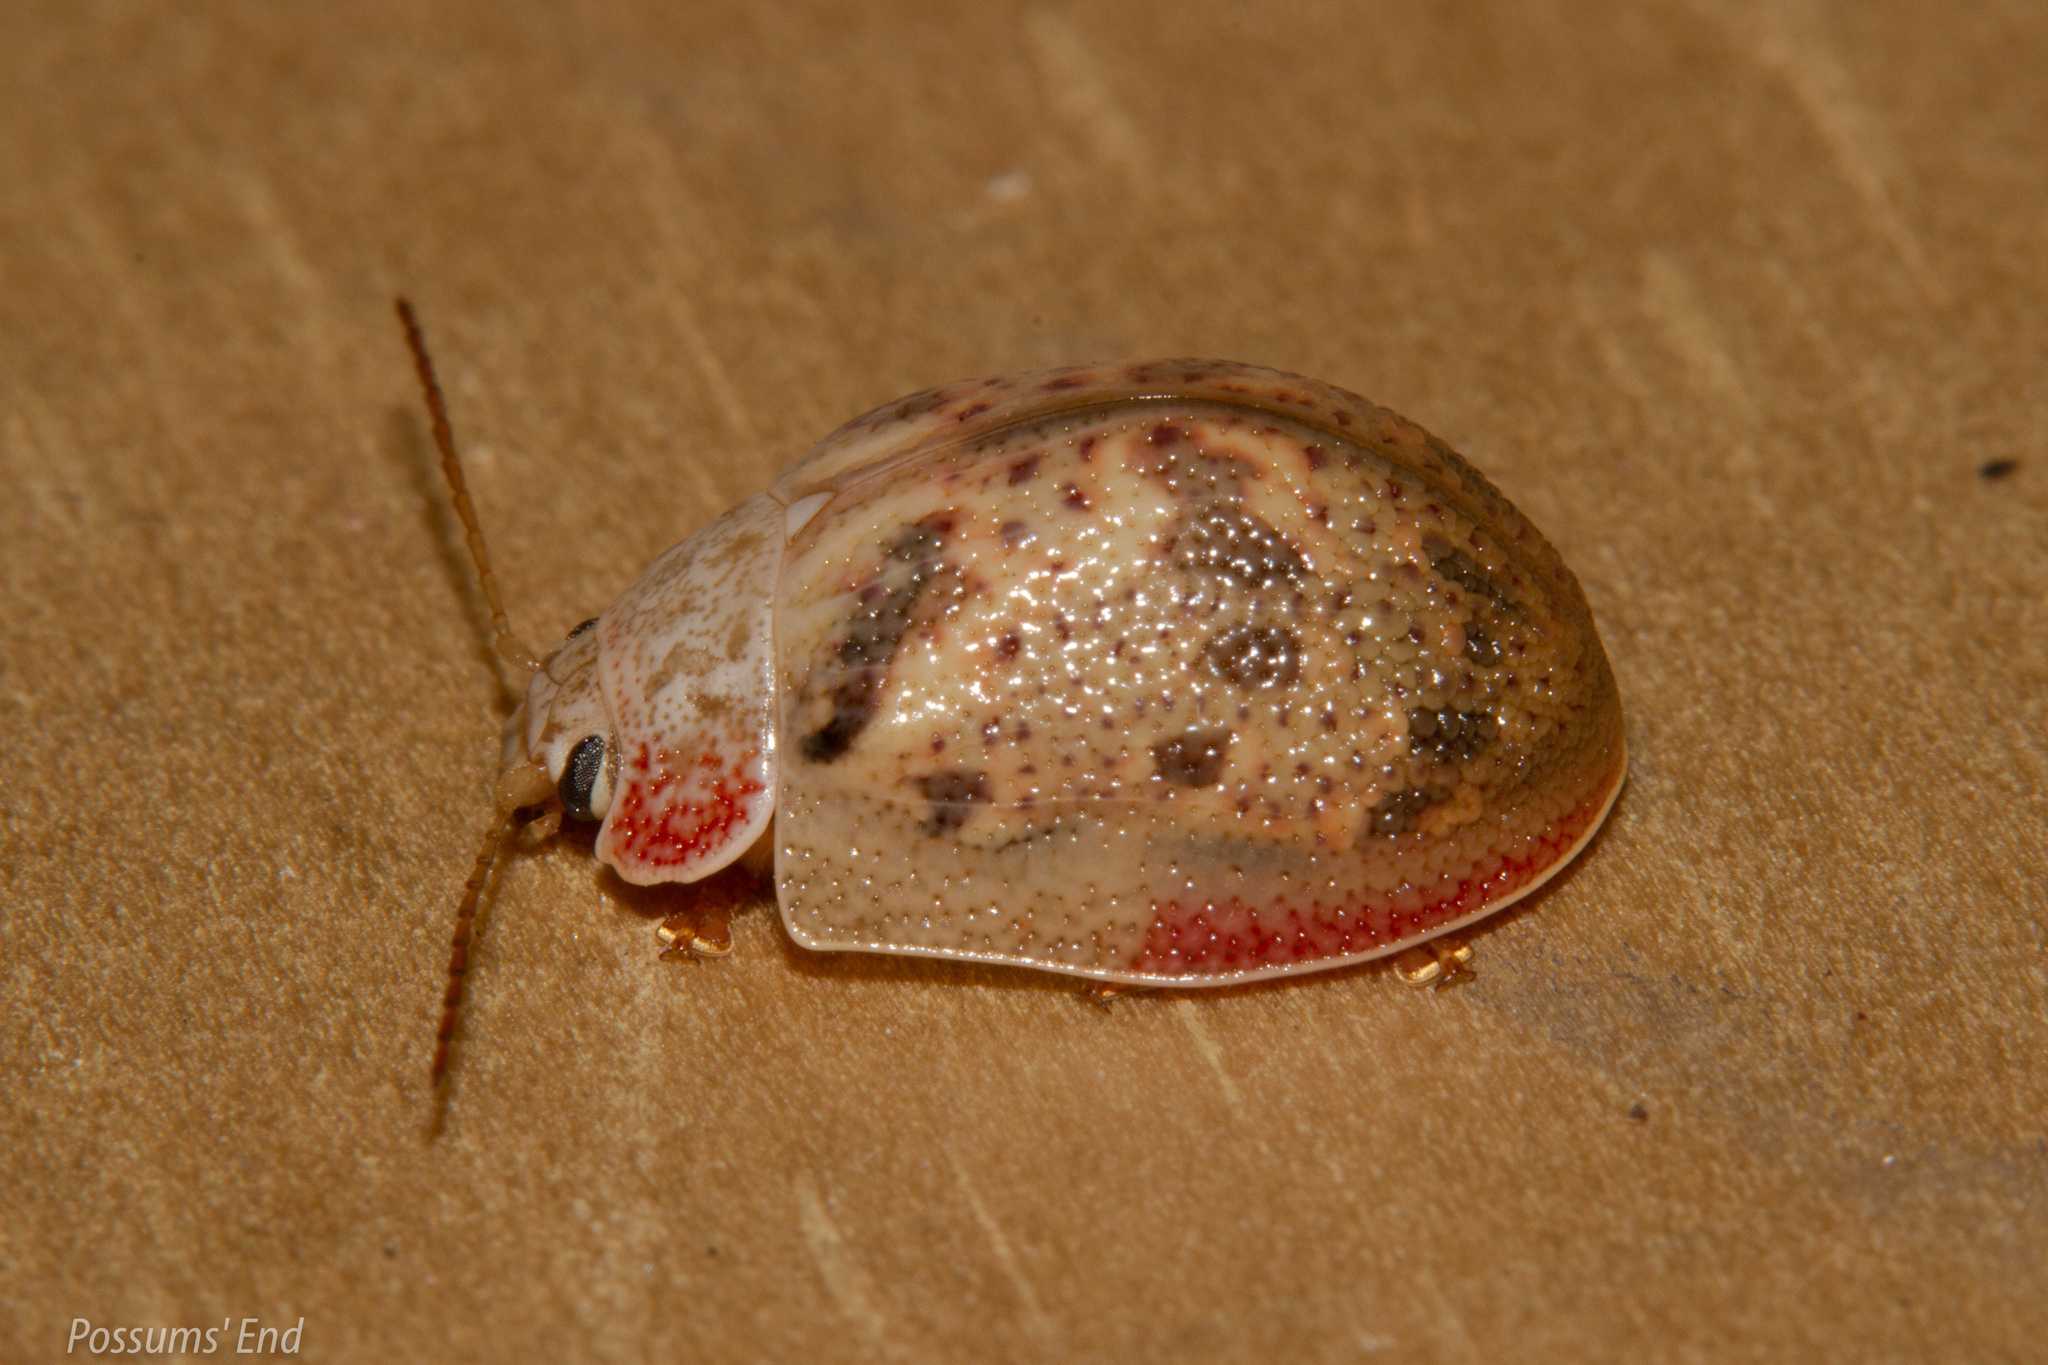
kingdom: Animalia
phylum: Arthropoda
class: Insecta
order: Coleoptera
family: Chrysomelidae
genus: Paropsis
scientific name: Paropsis charybdis
